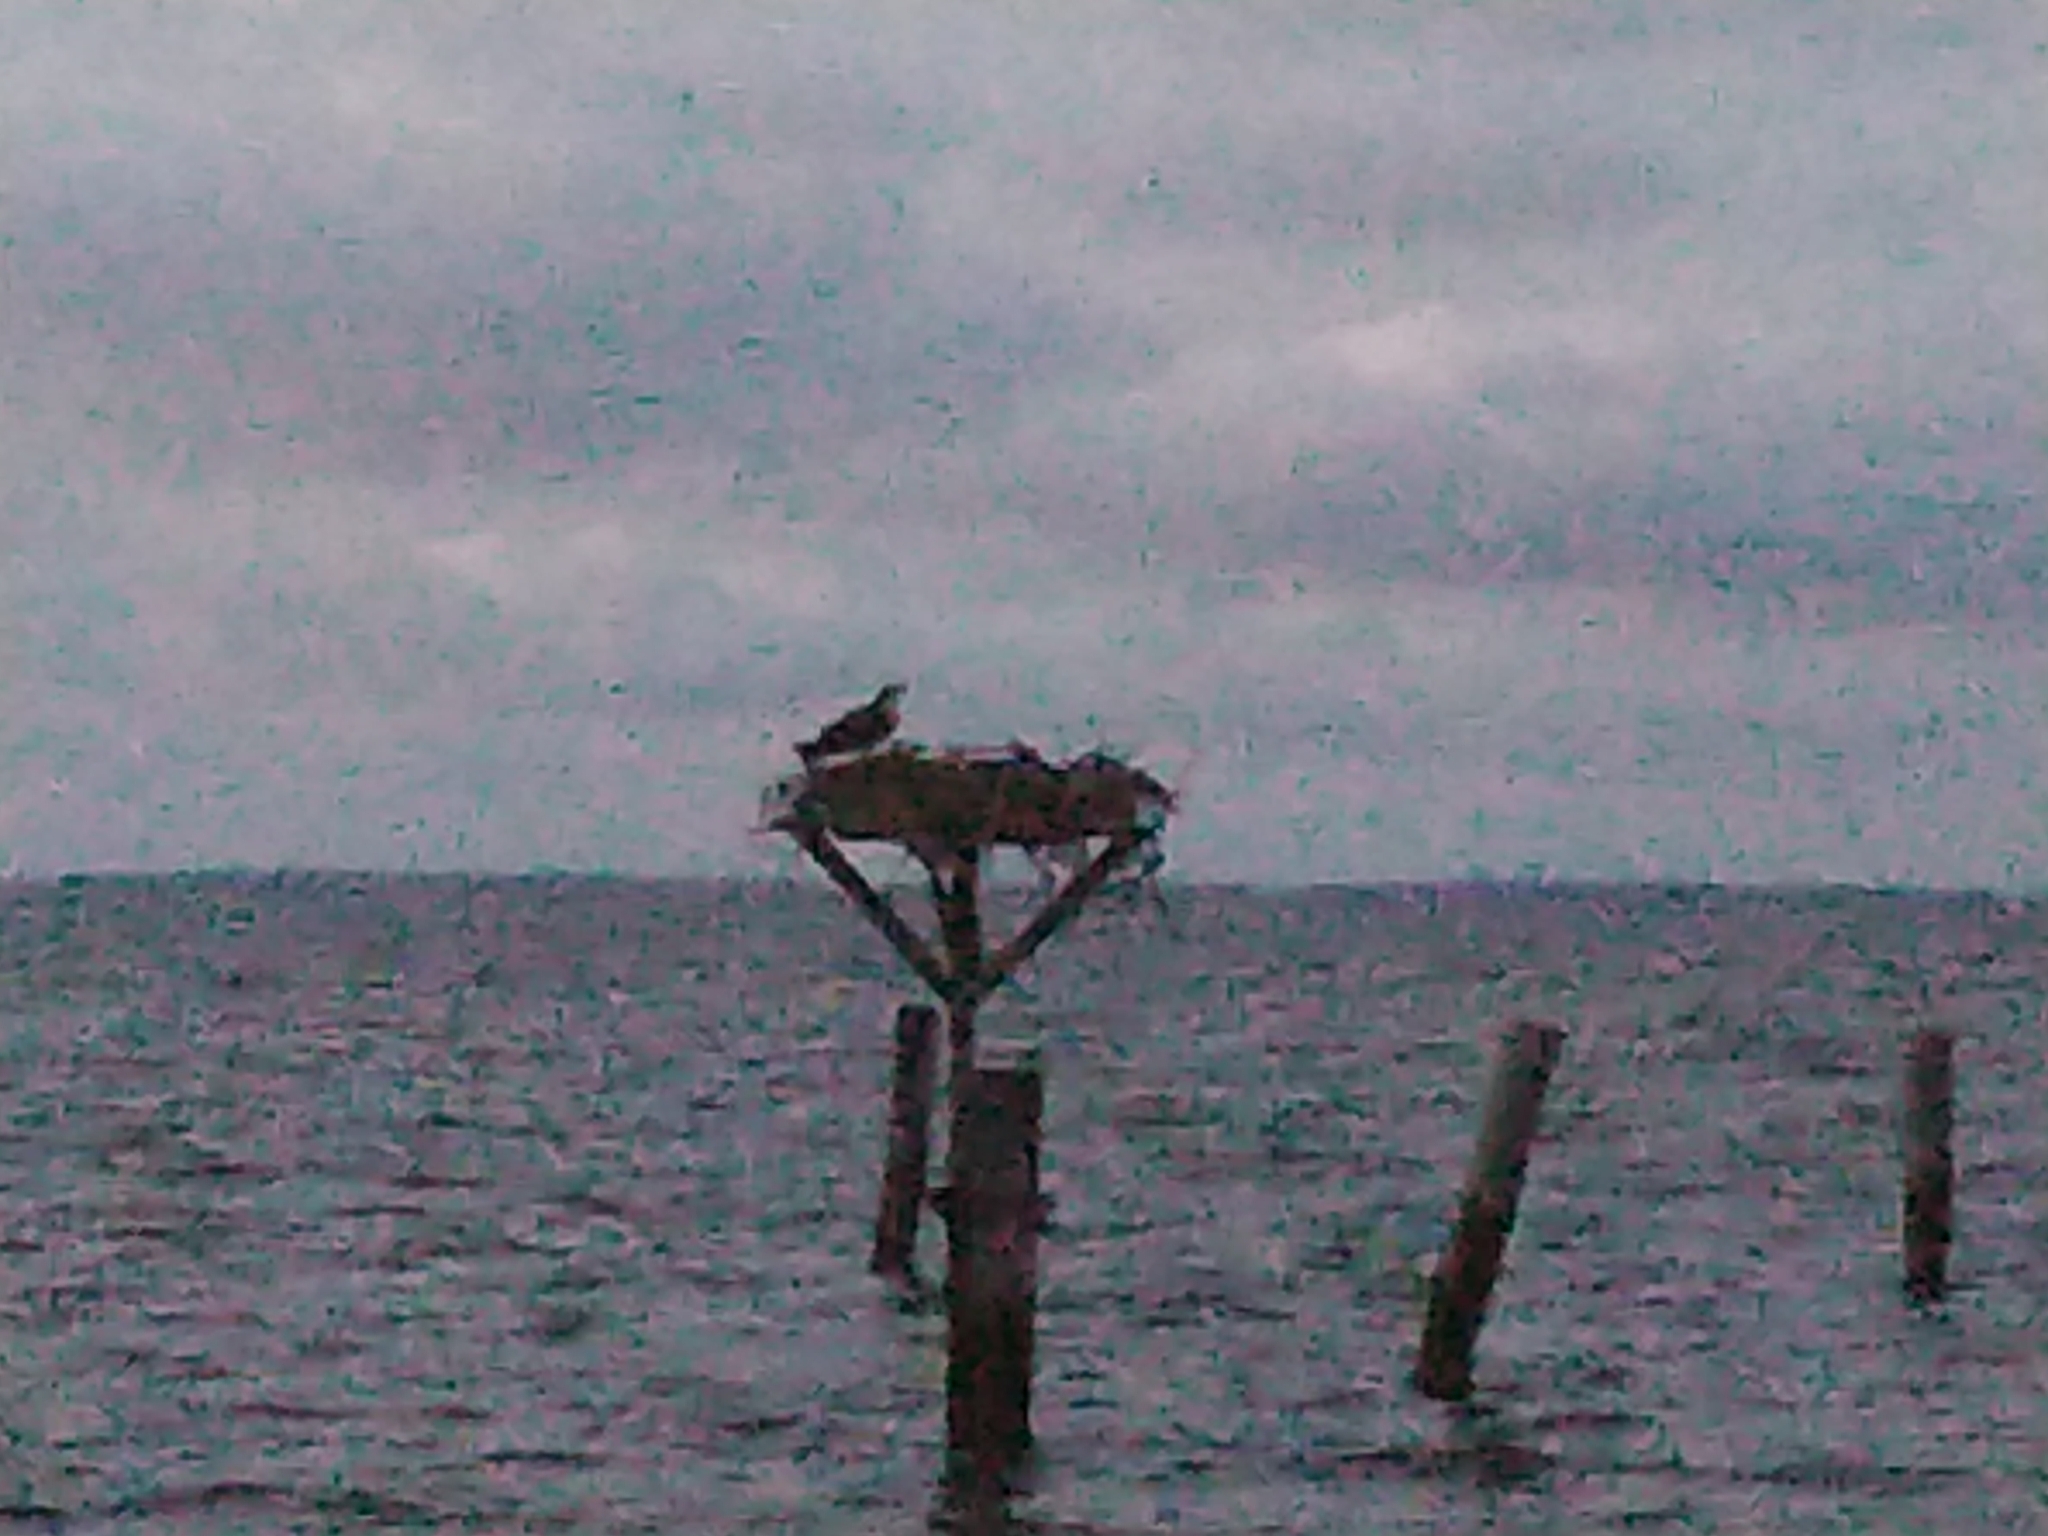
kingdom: Animalia
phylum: Chordata
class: Aves
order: Accipitriformes
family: Pandionidae
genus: Pandion
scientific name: Pandion haliaetus
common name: Osprey
